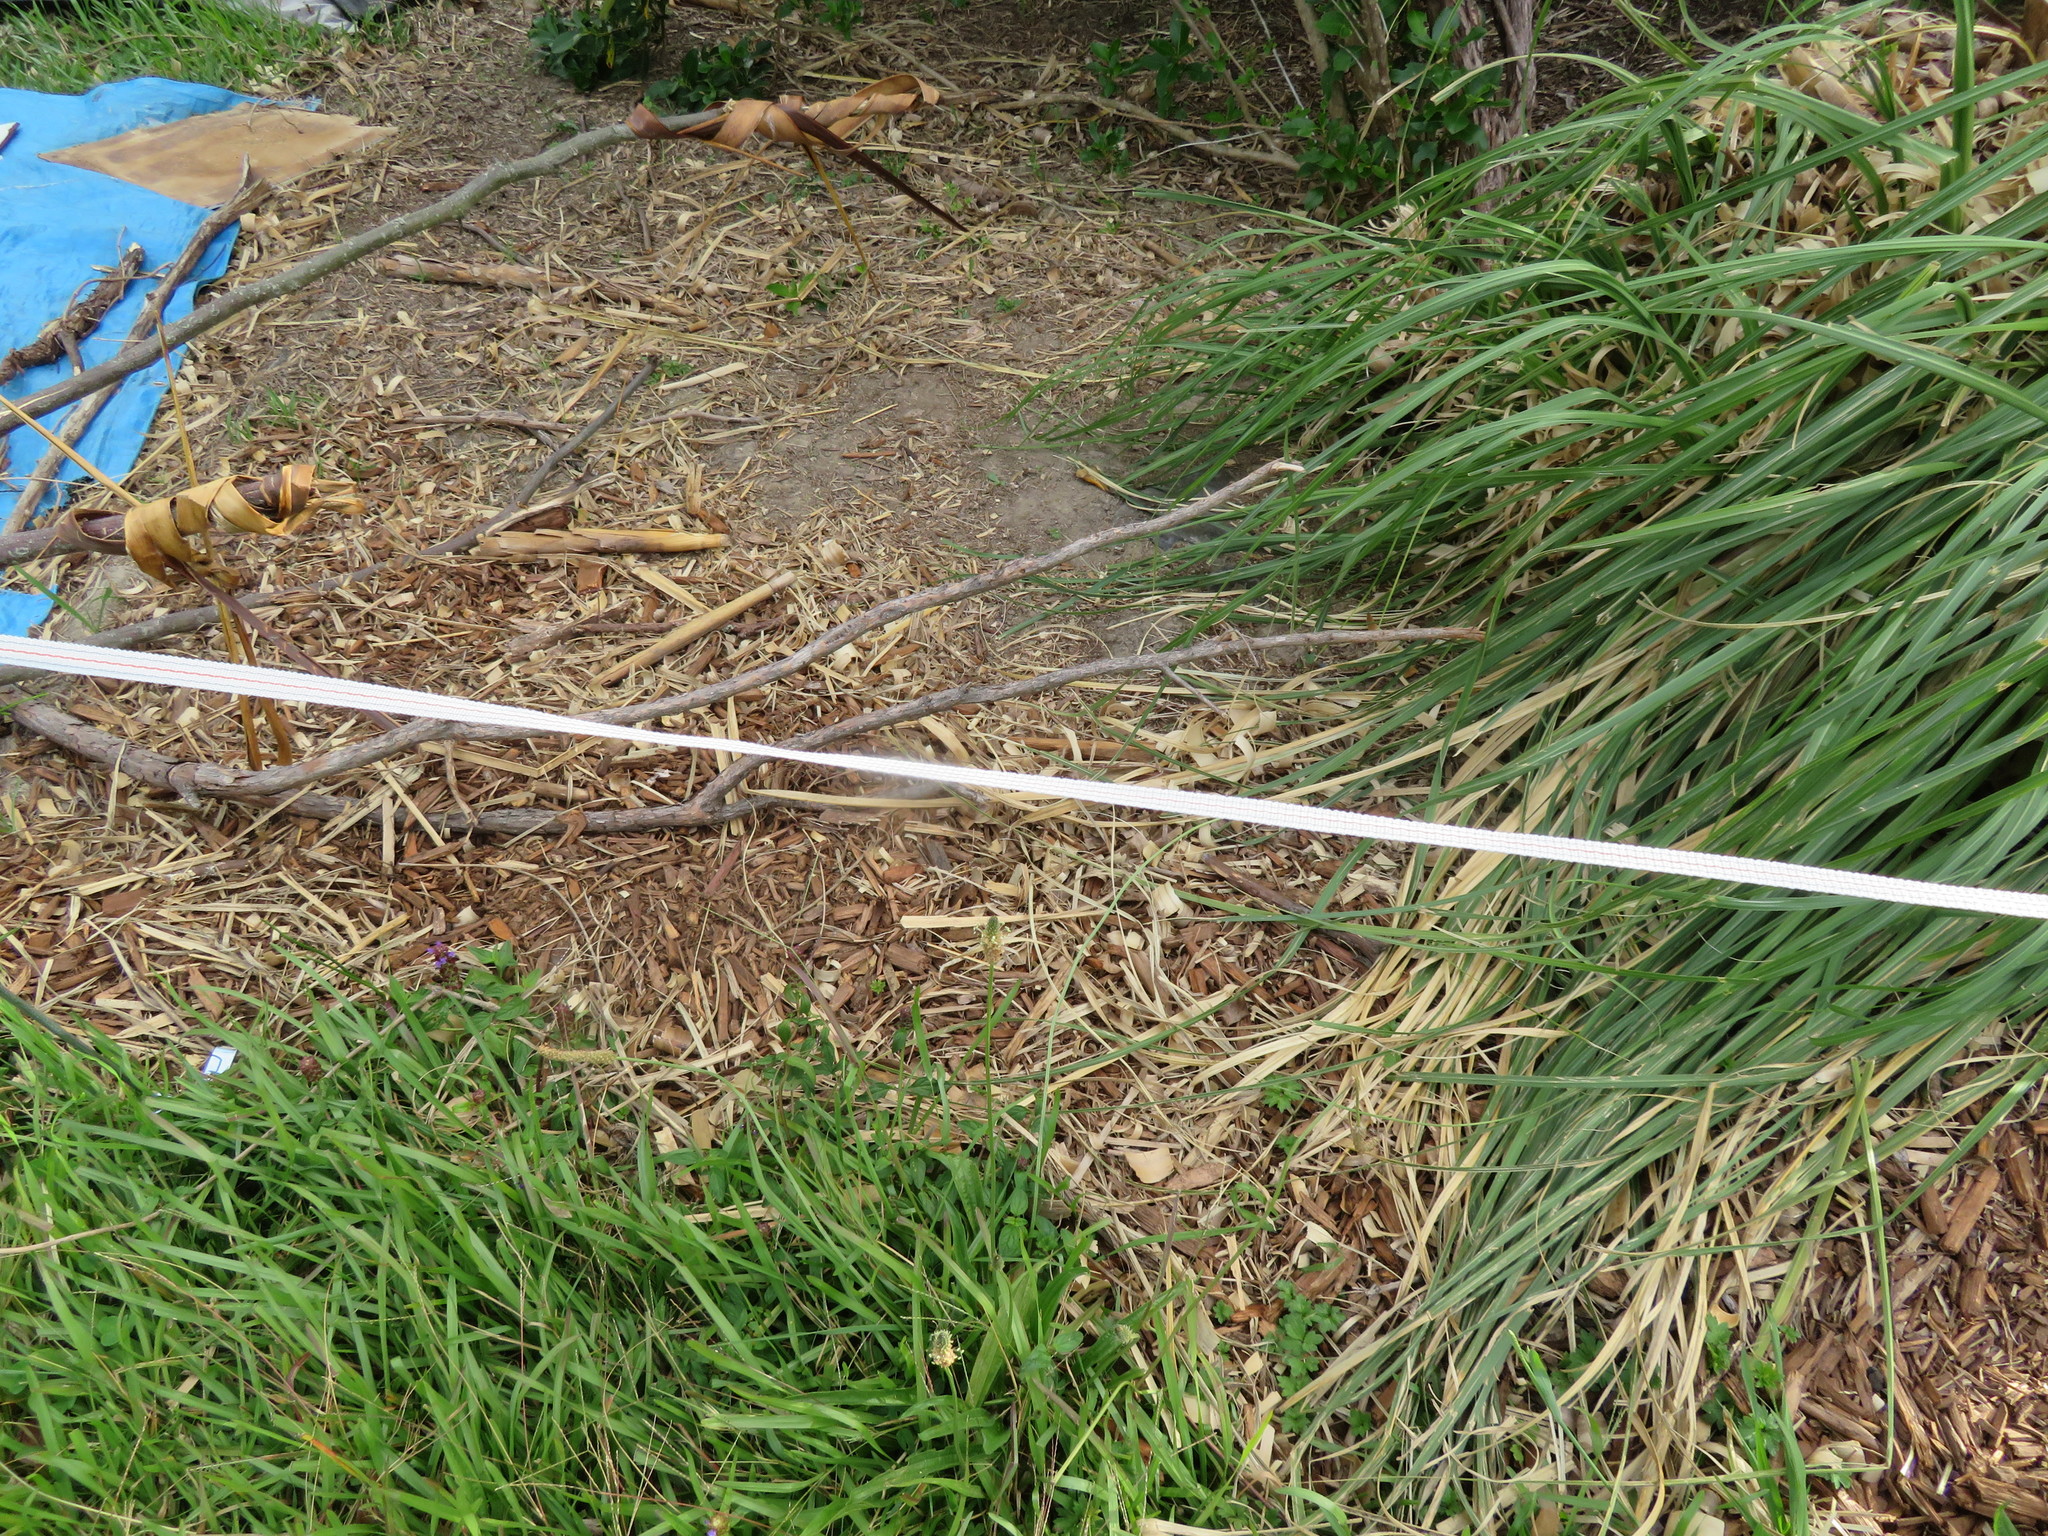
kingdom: Plantae
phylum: Tracheophyta
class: Liliopsida
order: Poales
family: Poaceae
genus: Cortaderia
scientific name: Cortaderia selloana
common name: Uruguayan pampas grass
